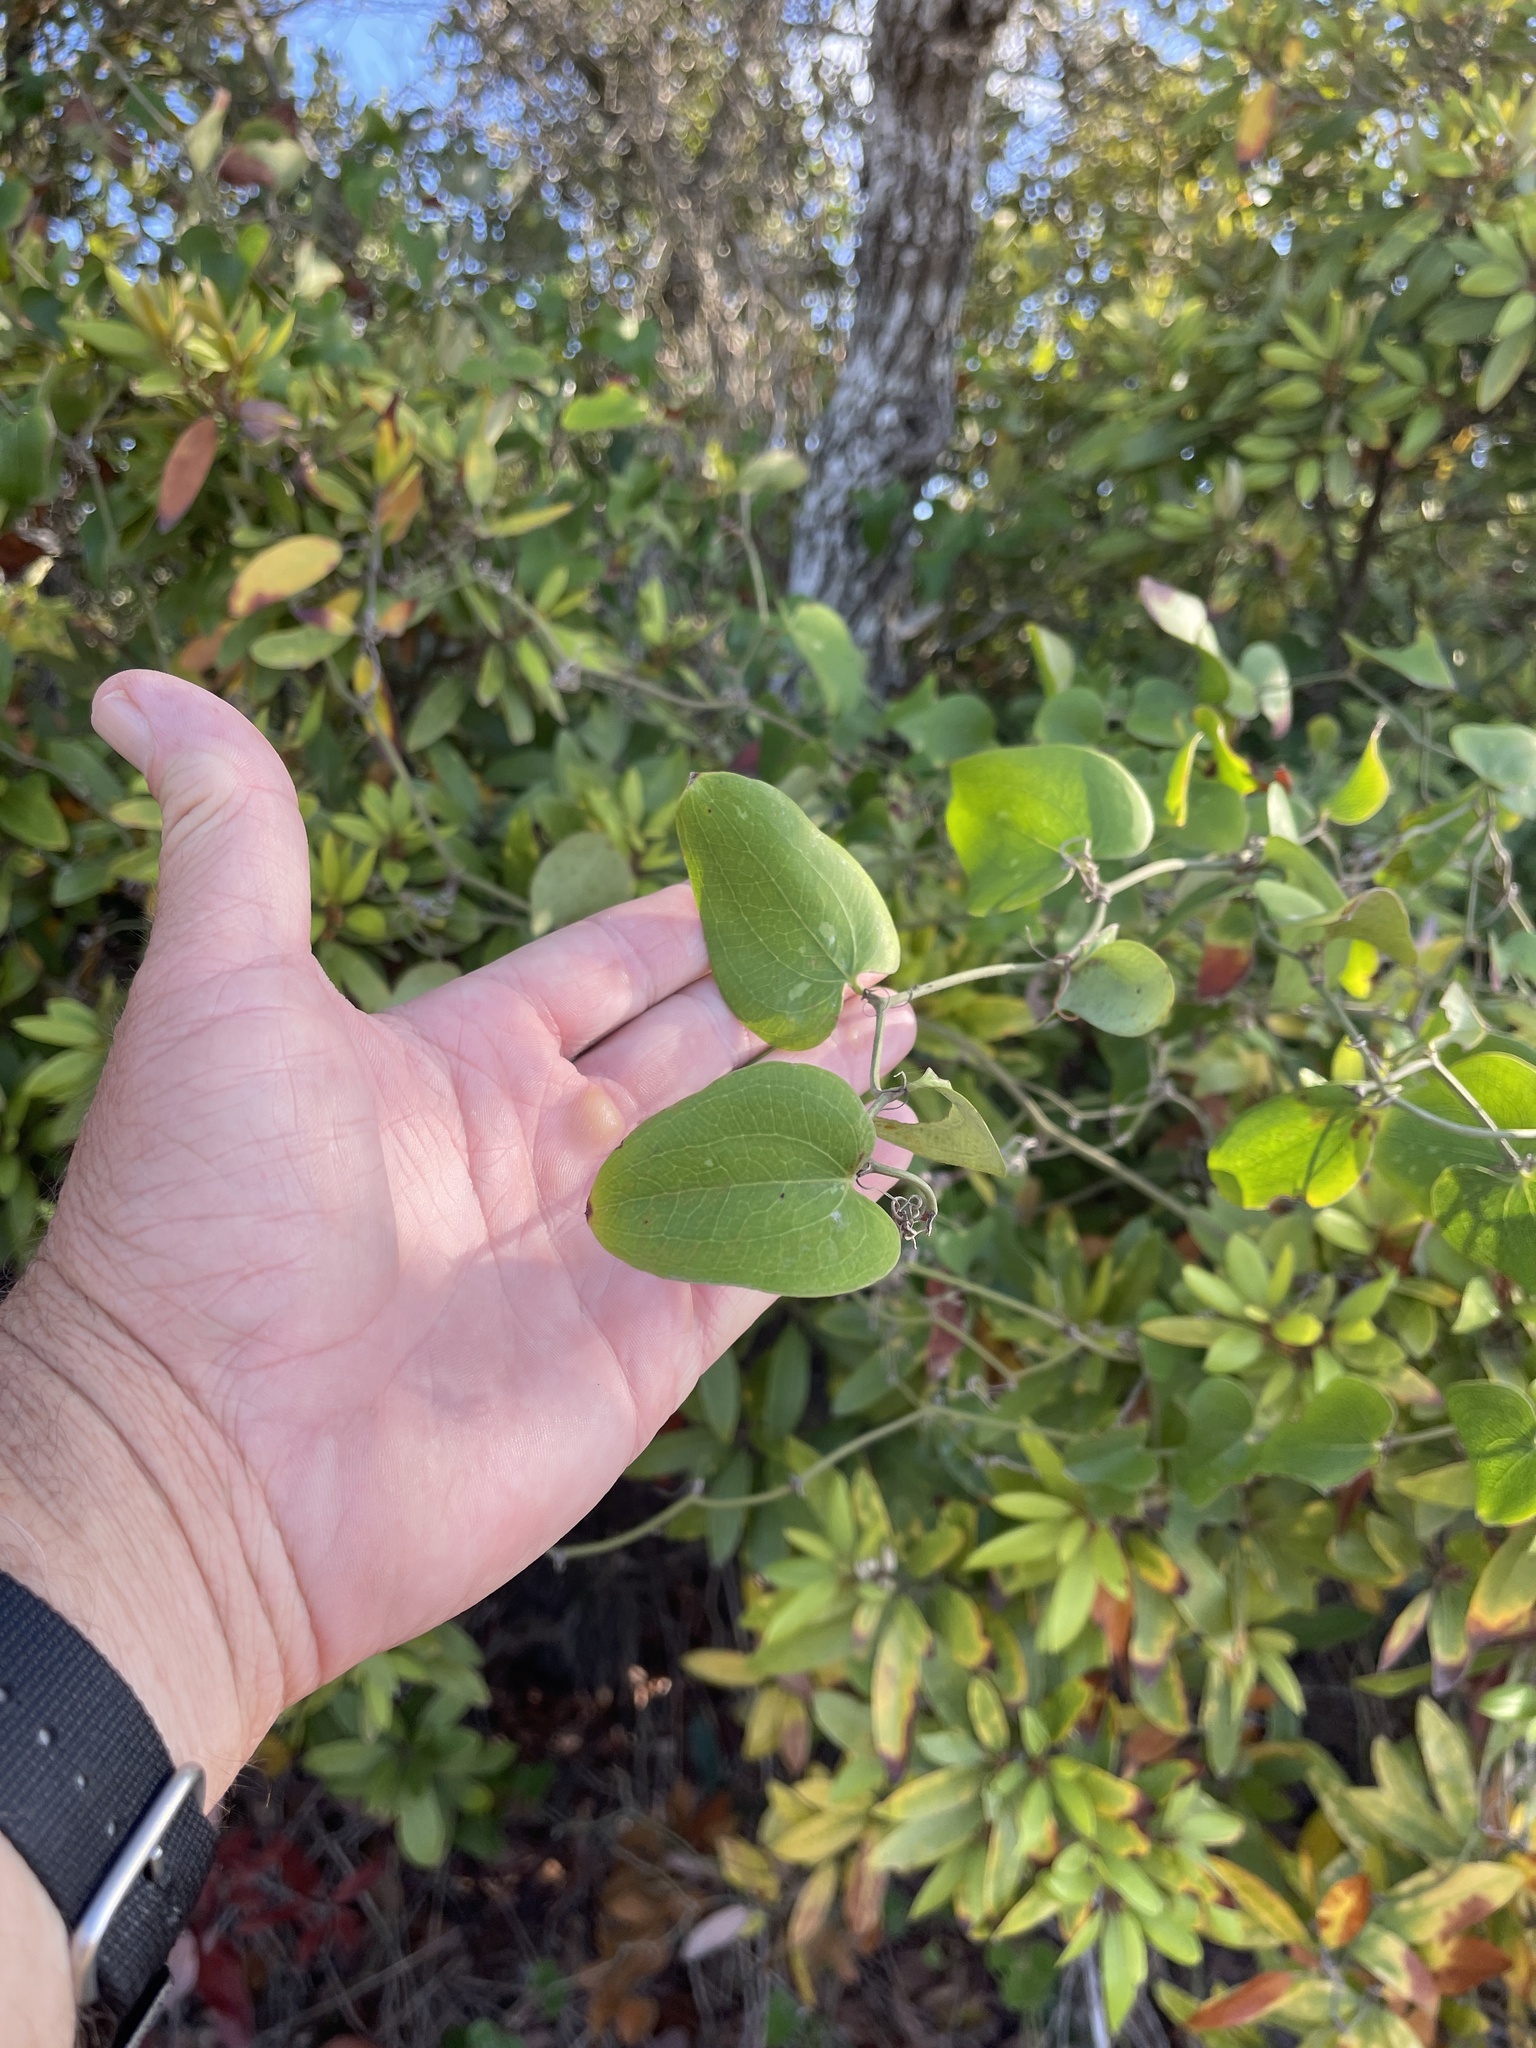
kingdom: Plantae
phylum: Tracheophyta
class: Liliopsida
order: Liliales
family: Smilacaceae
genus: Smilax
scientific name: Smilax bona-nox
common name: Catbrier
